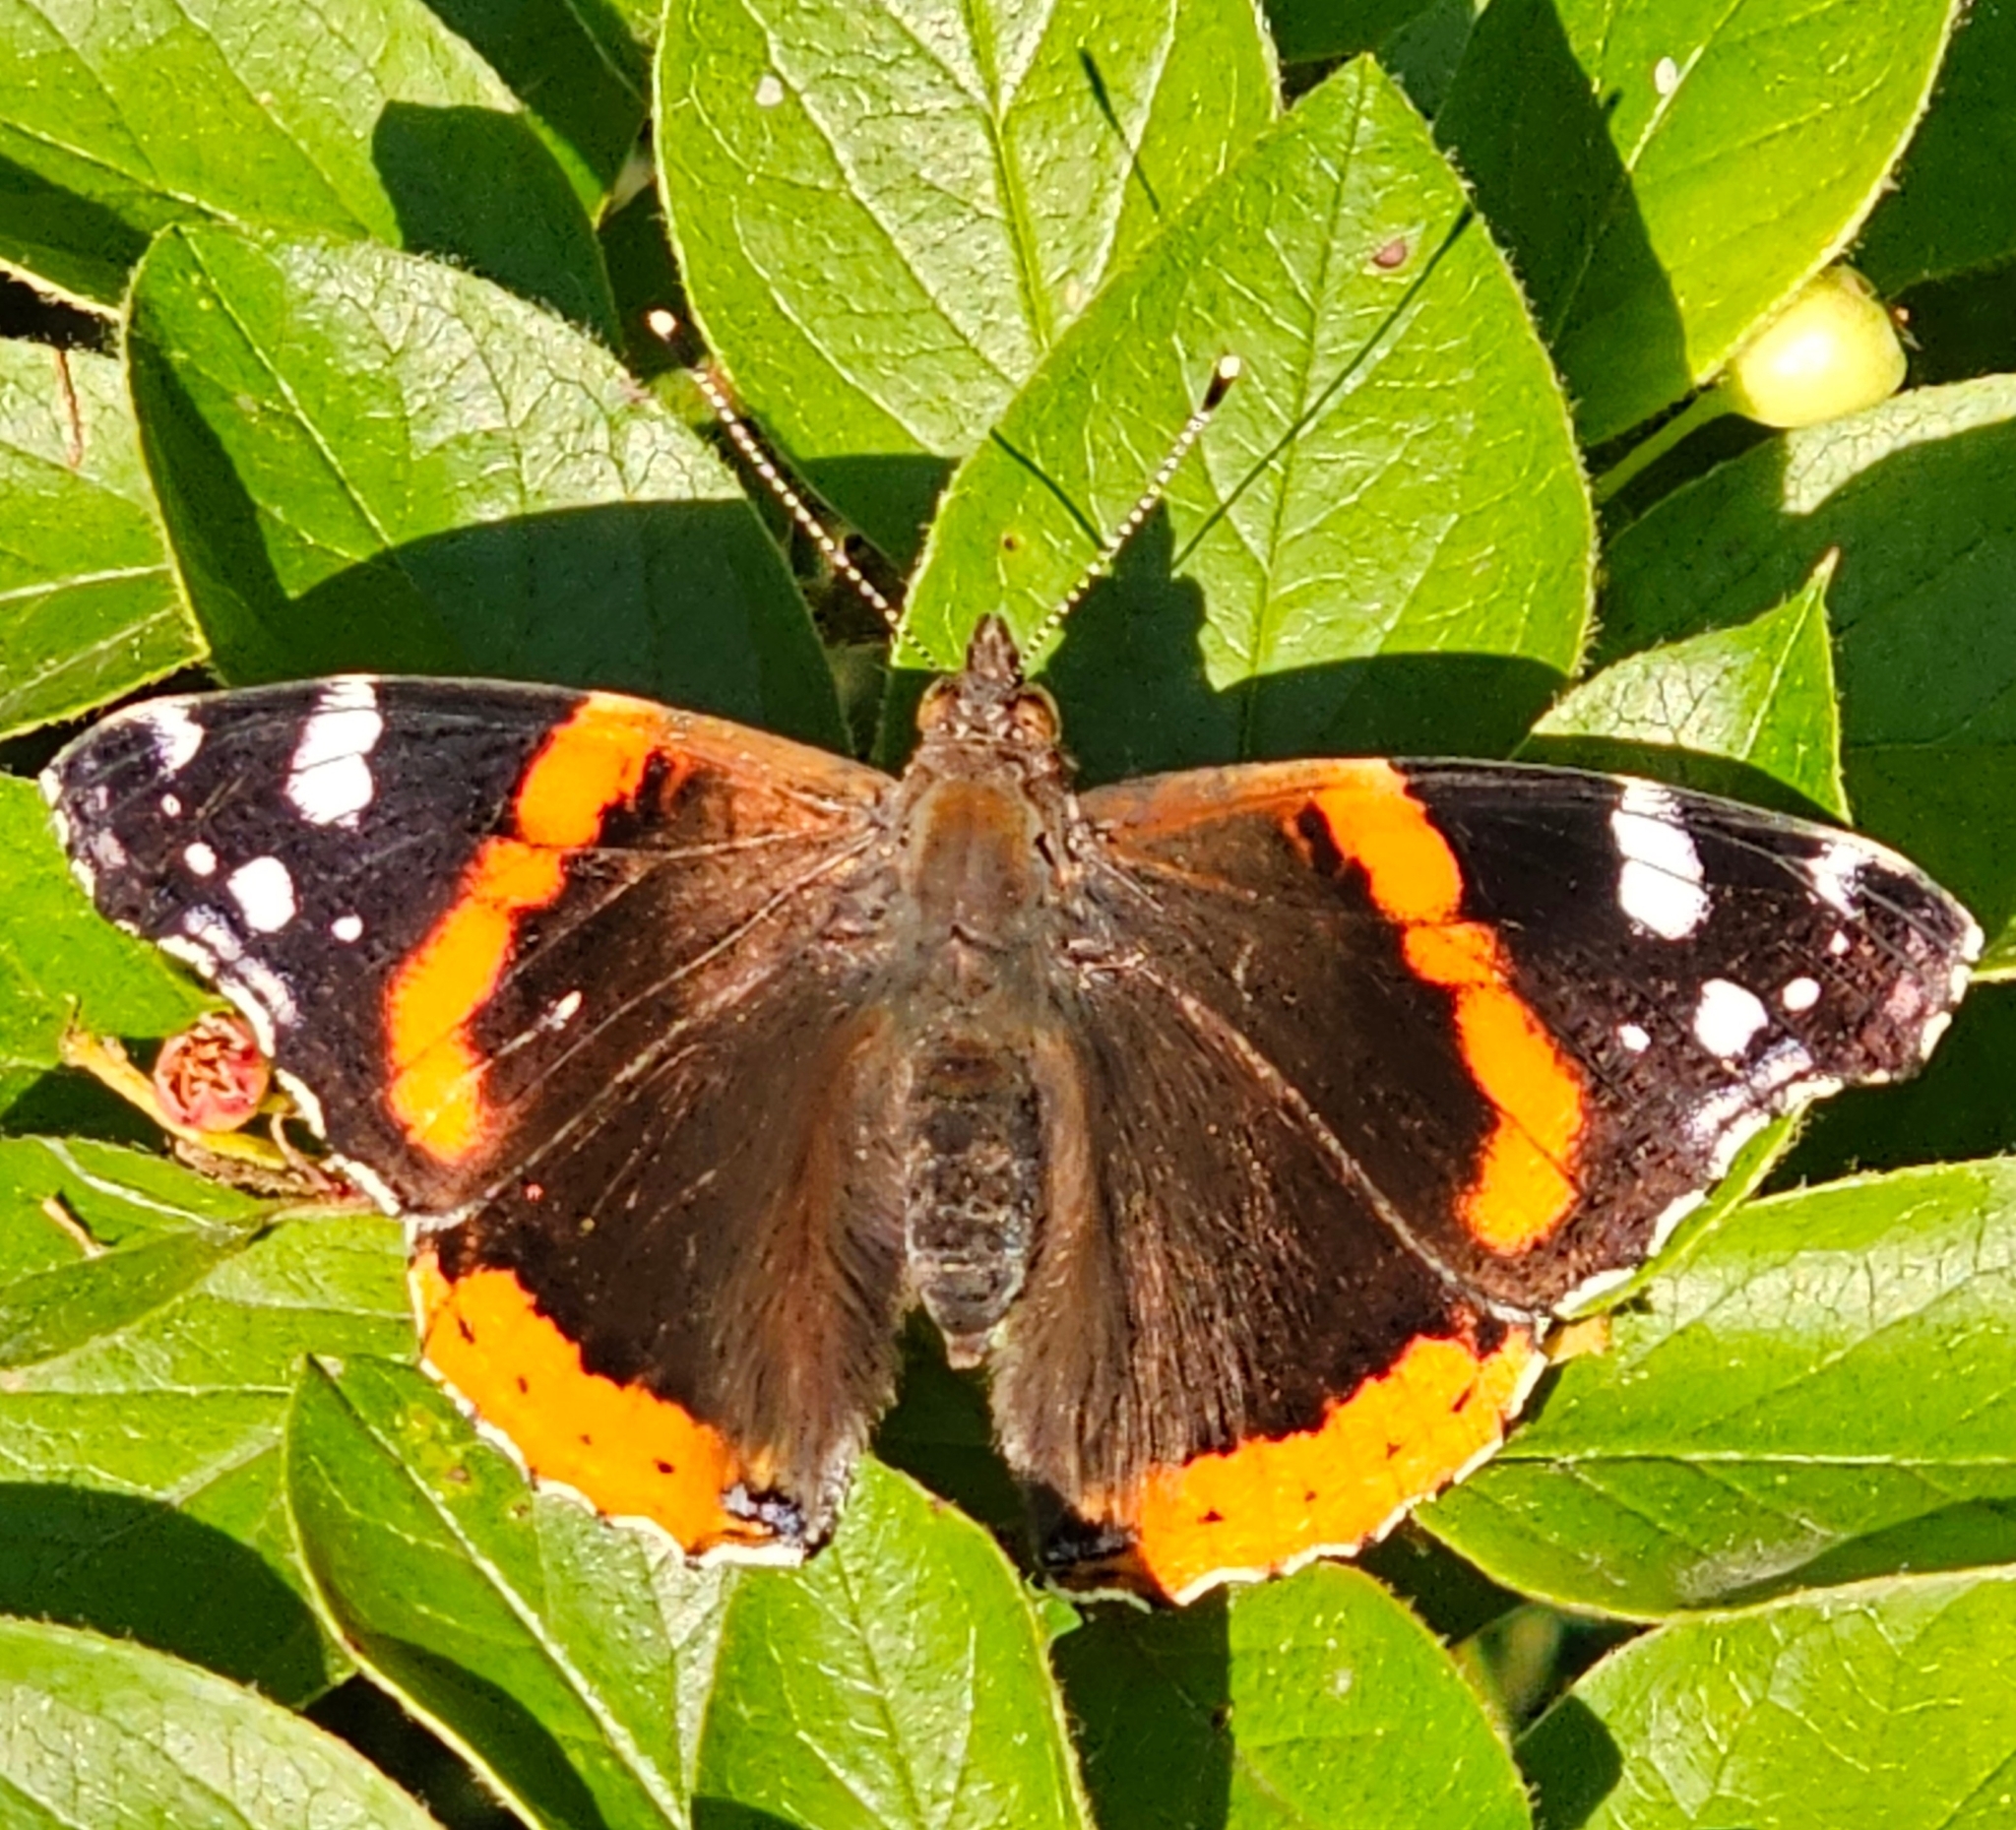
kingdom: Animalia
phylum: Arthropoda
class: Insecta
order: Lepidoptera
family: Nymphalidae
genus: Vanessa
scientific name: Vanessa atalanta
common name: Red admiral
